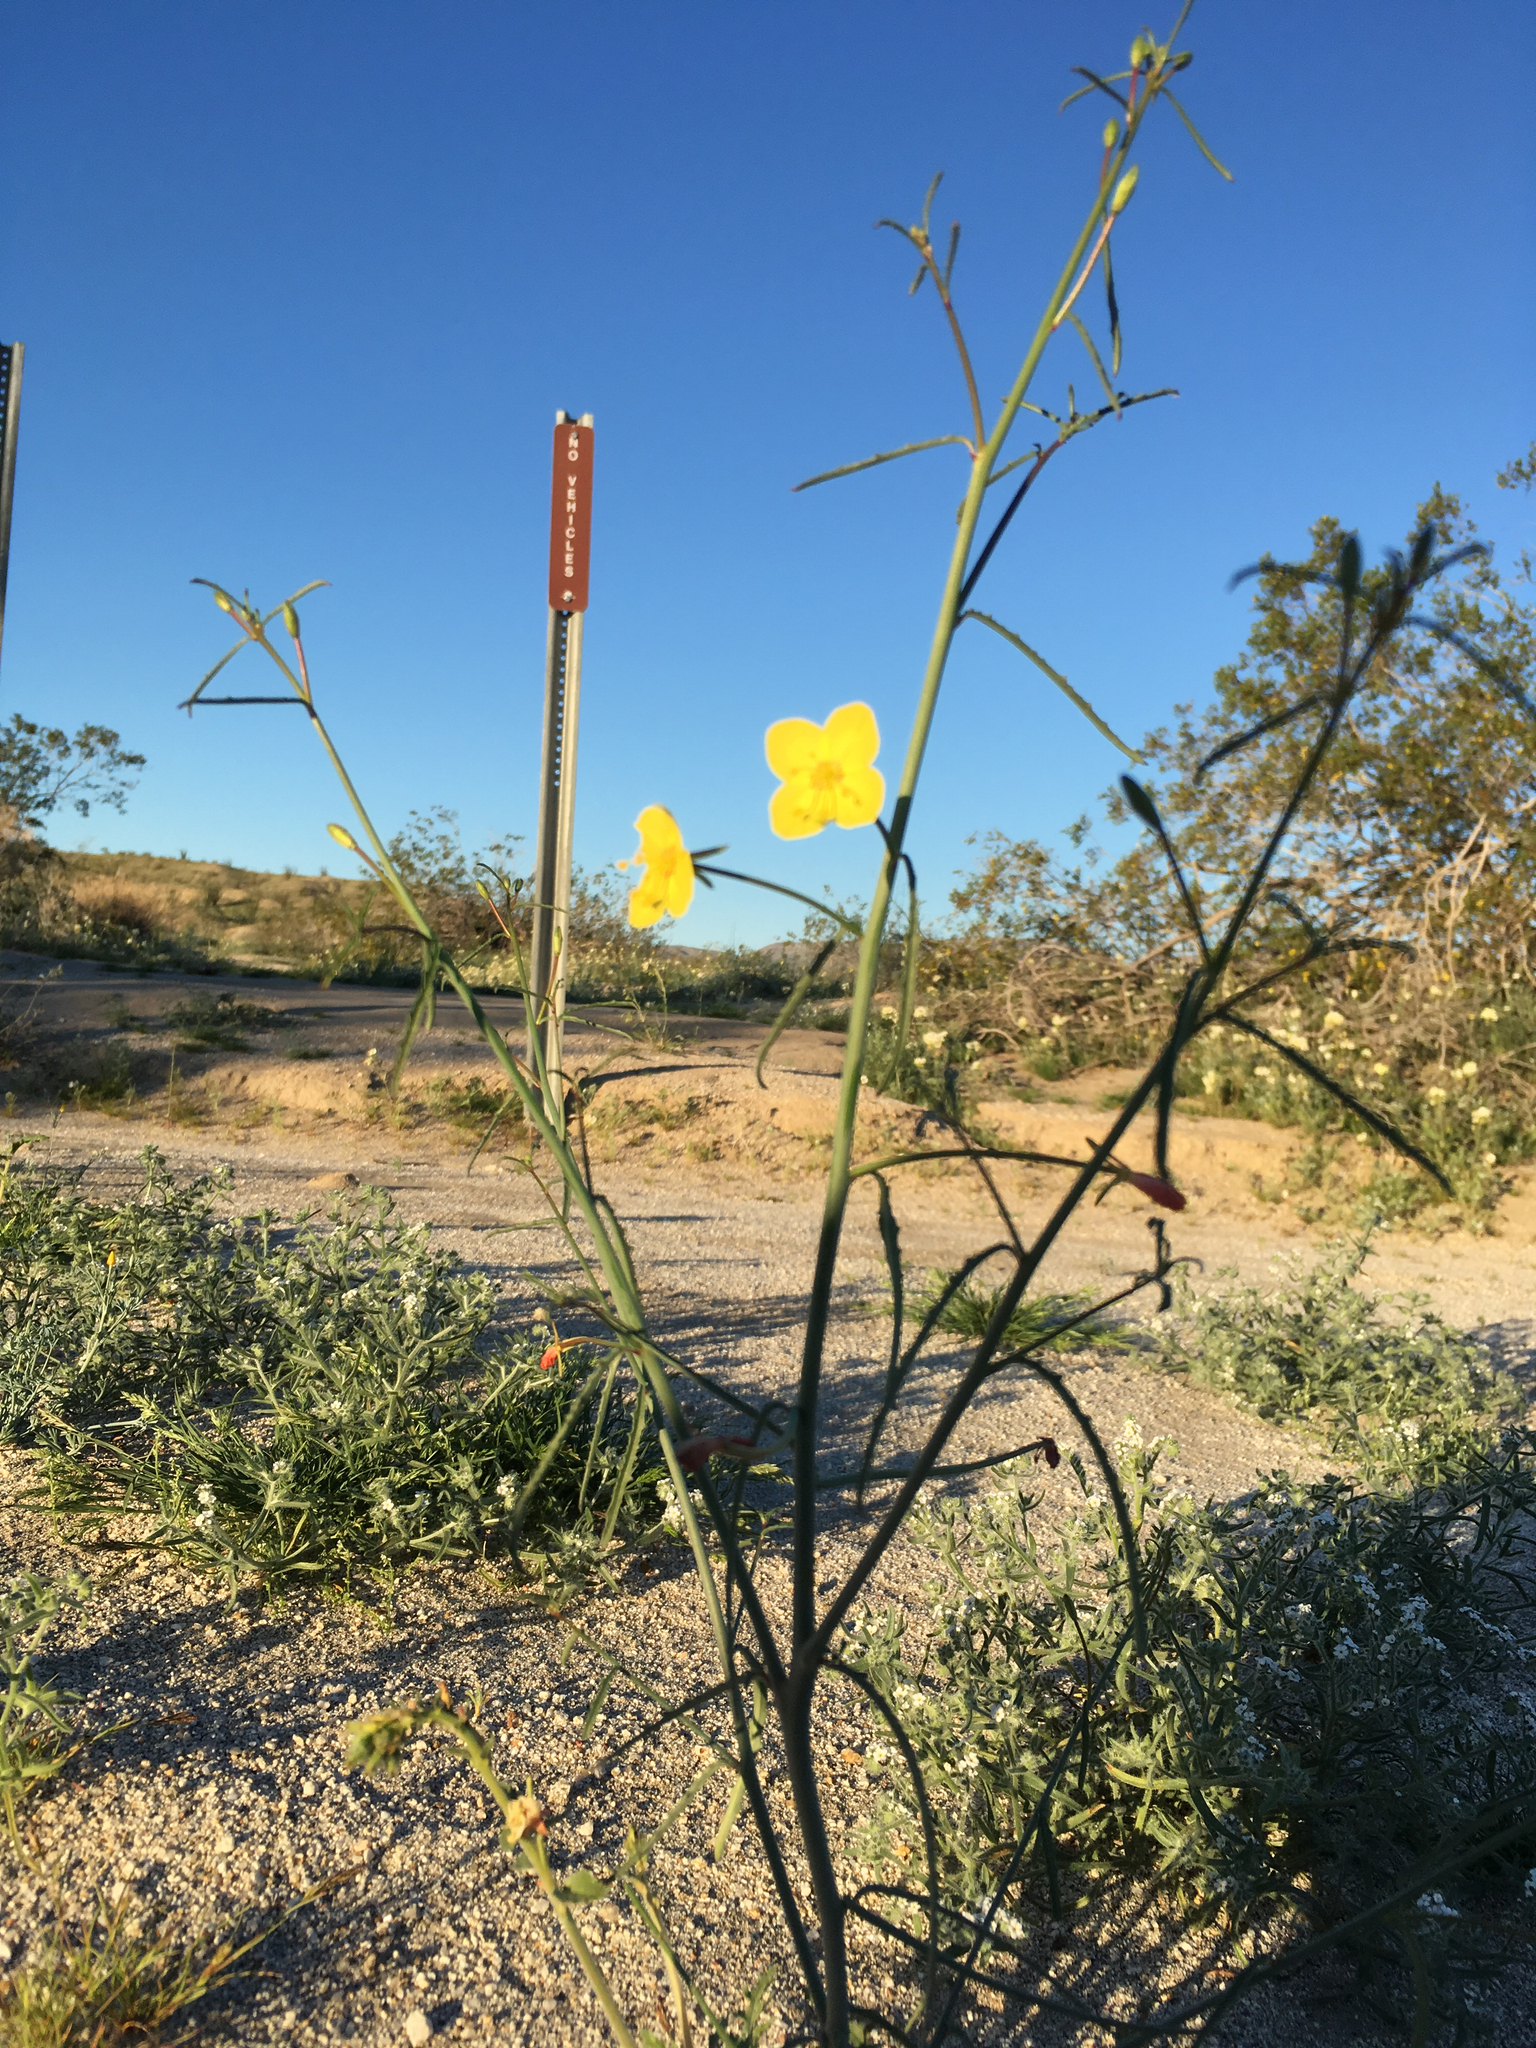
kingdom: Plantae
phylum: Tracheophyta
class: Magnoliopsida
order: Myrtales
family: Onagraceae
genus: Eulobus
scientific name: Eulobus californicus
